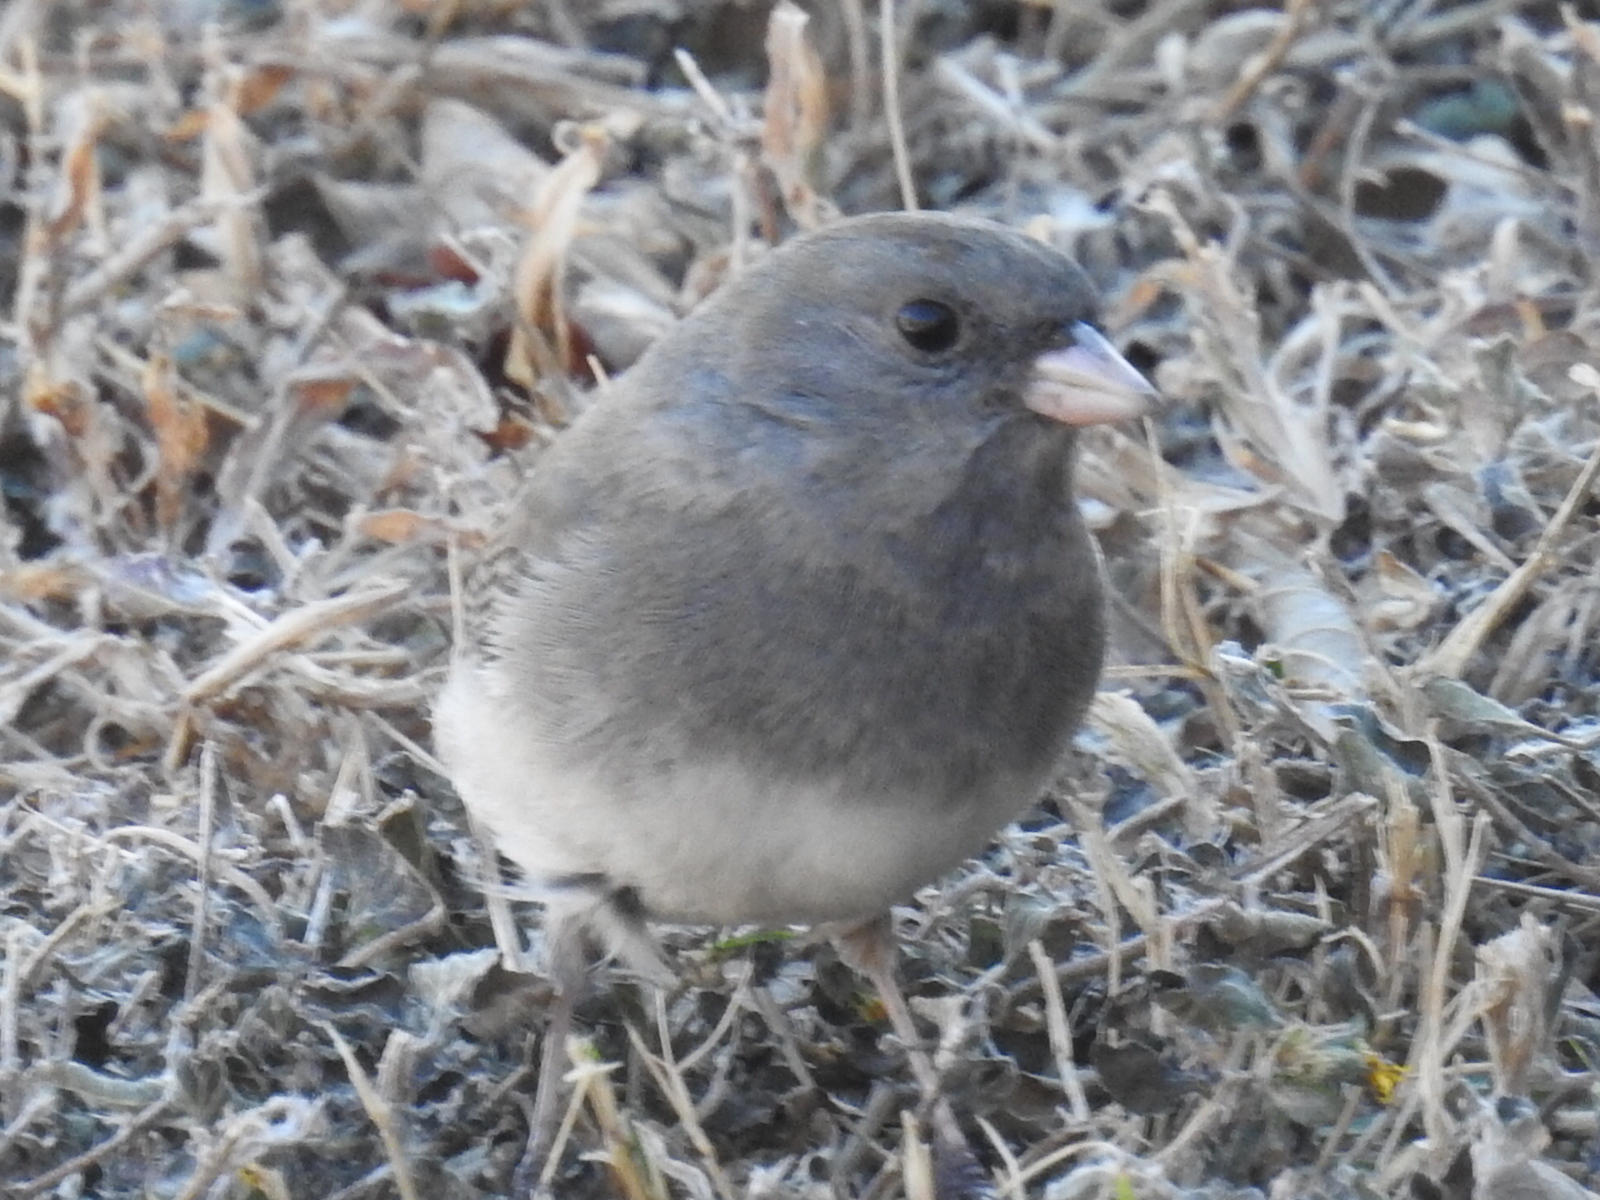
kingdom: Animalia
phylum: Chordata
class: Aves
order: Passeriformes
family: Passerellidae
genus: Junco
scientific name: Junco hyemalis
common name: Dark-eyed junco
